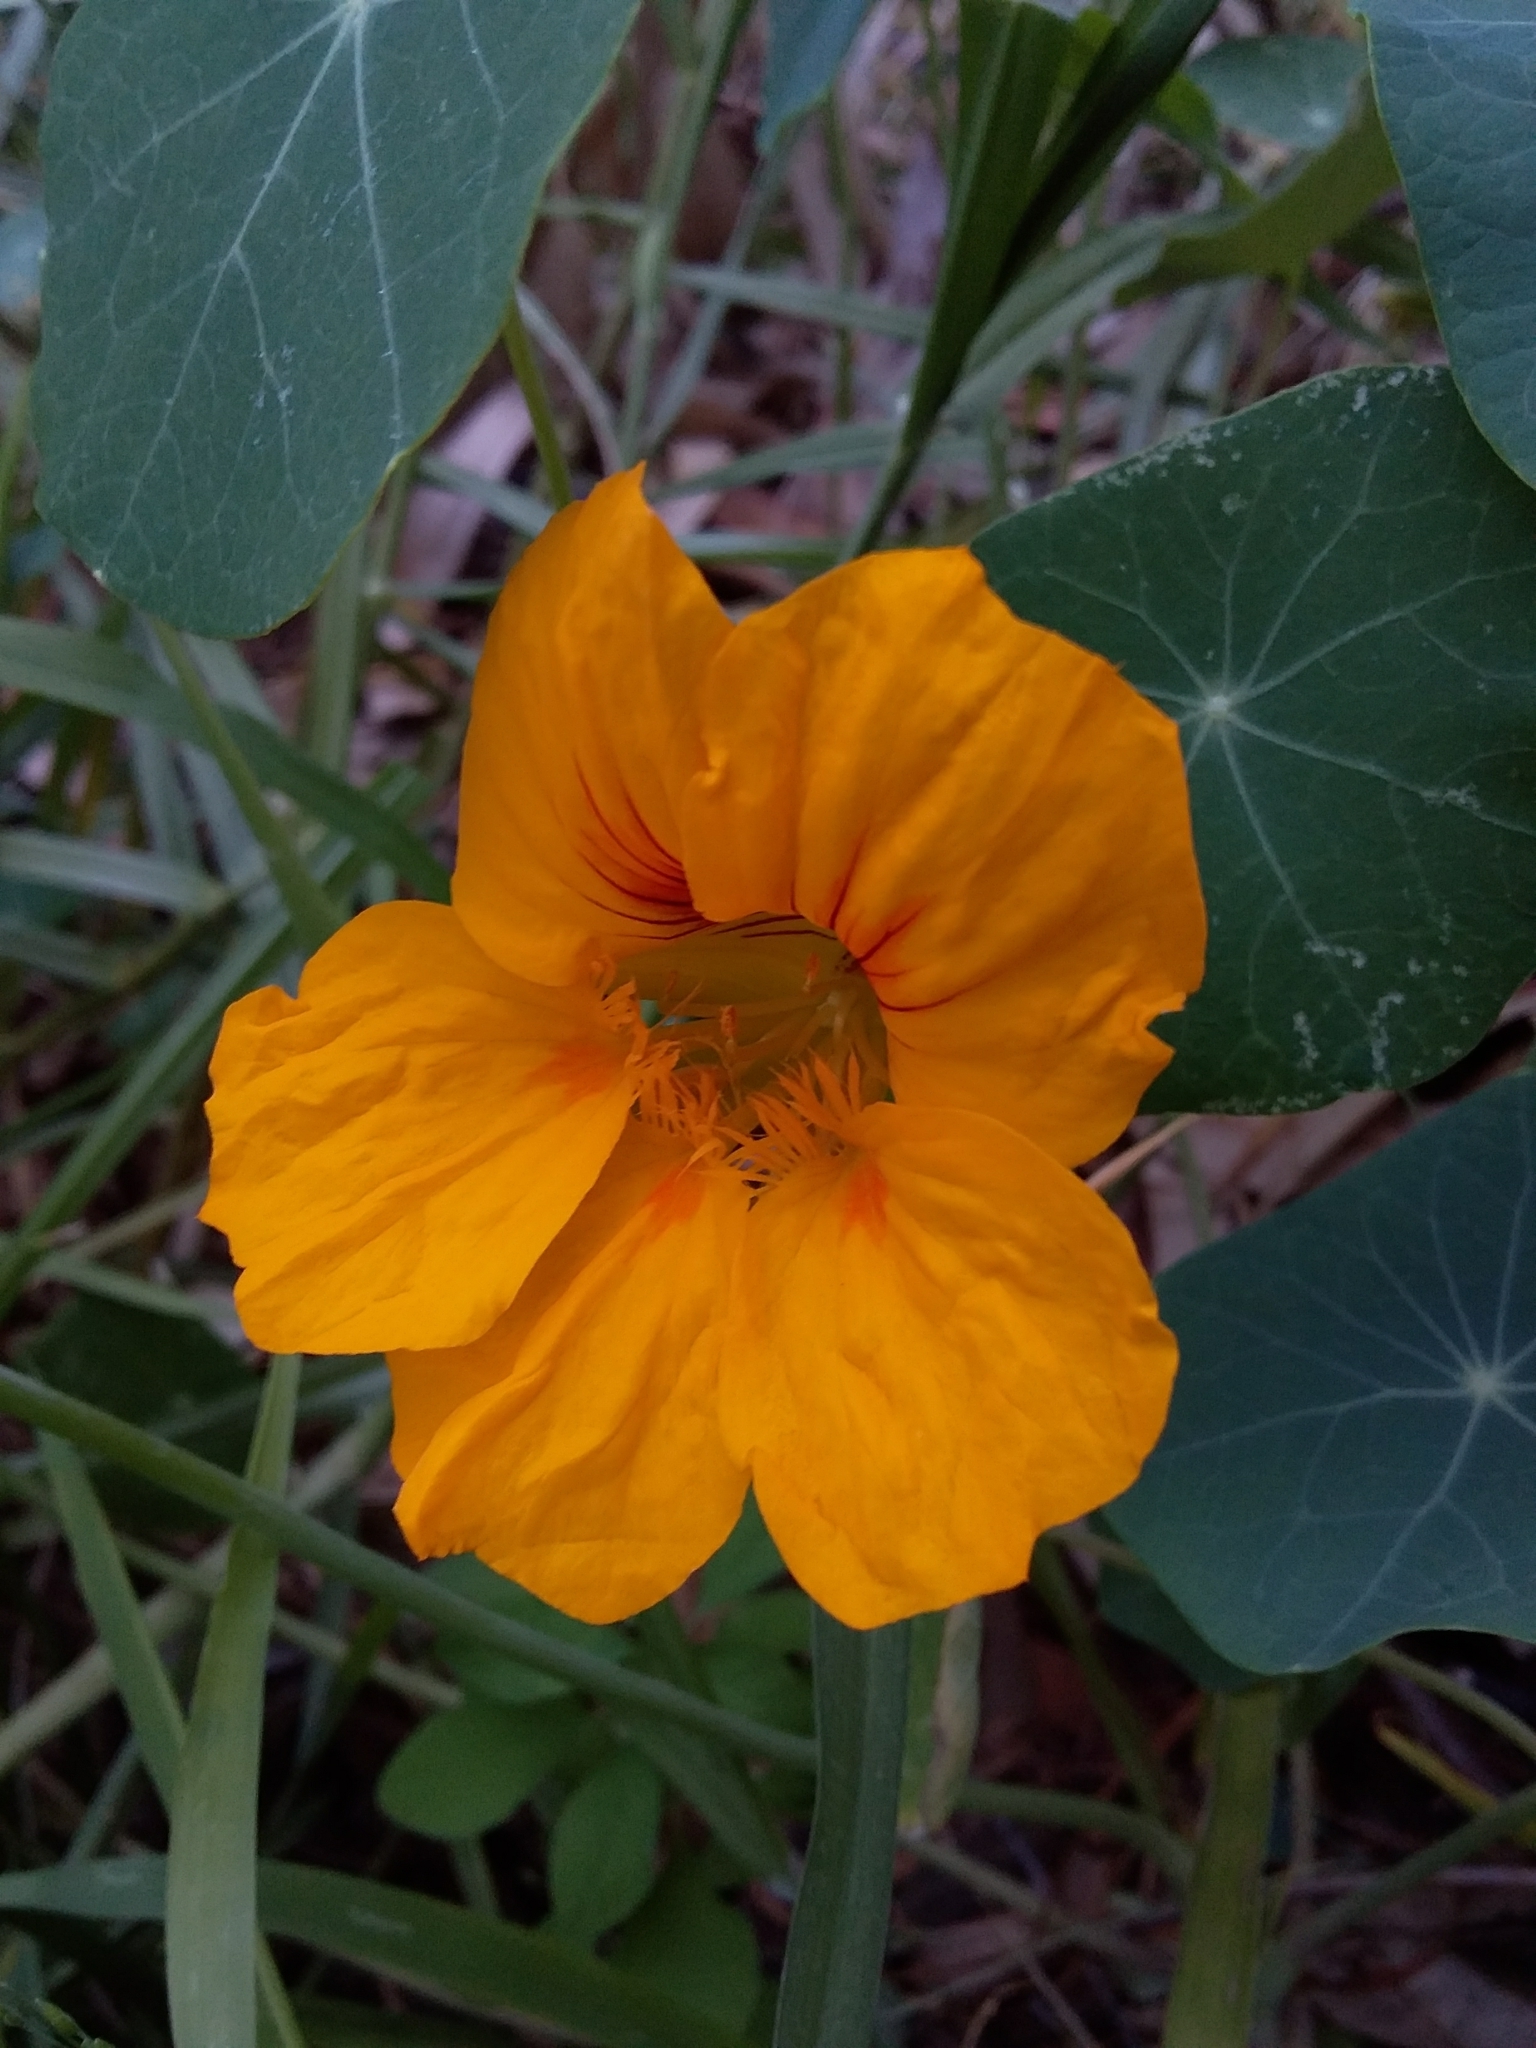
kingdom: Plantae
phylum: Tracheophyta
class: Magnoliopsida
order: Brassicales
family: Tropaeolaceae
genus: Tropaeolum
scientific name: Tropaeolum majus
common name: Nasturtium
